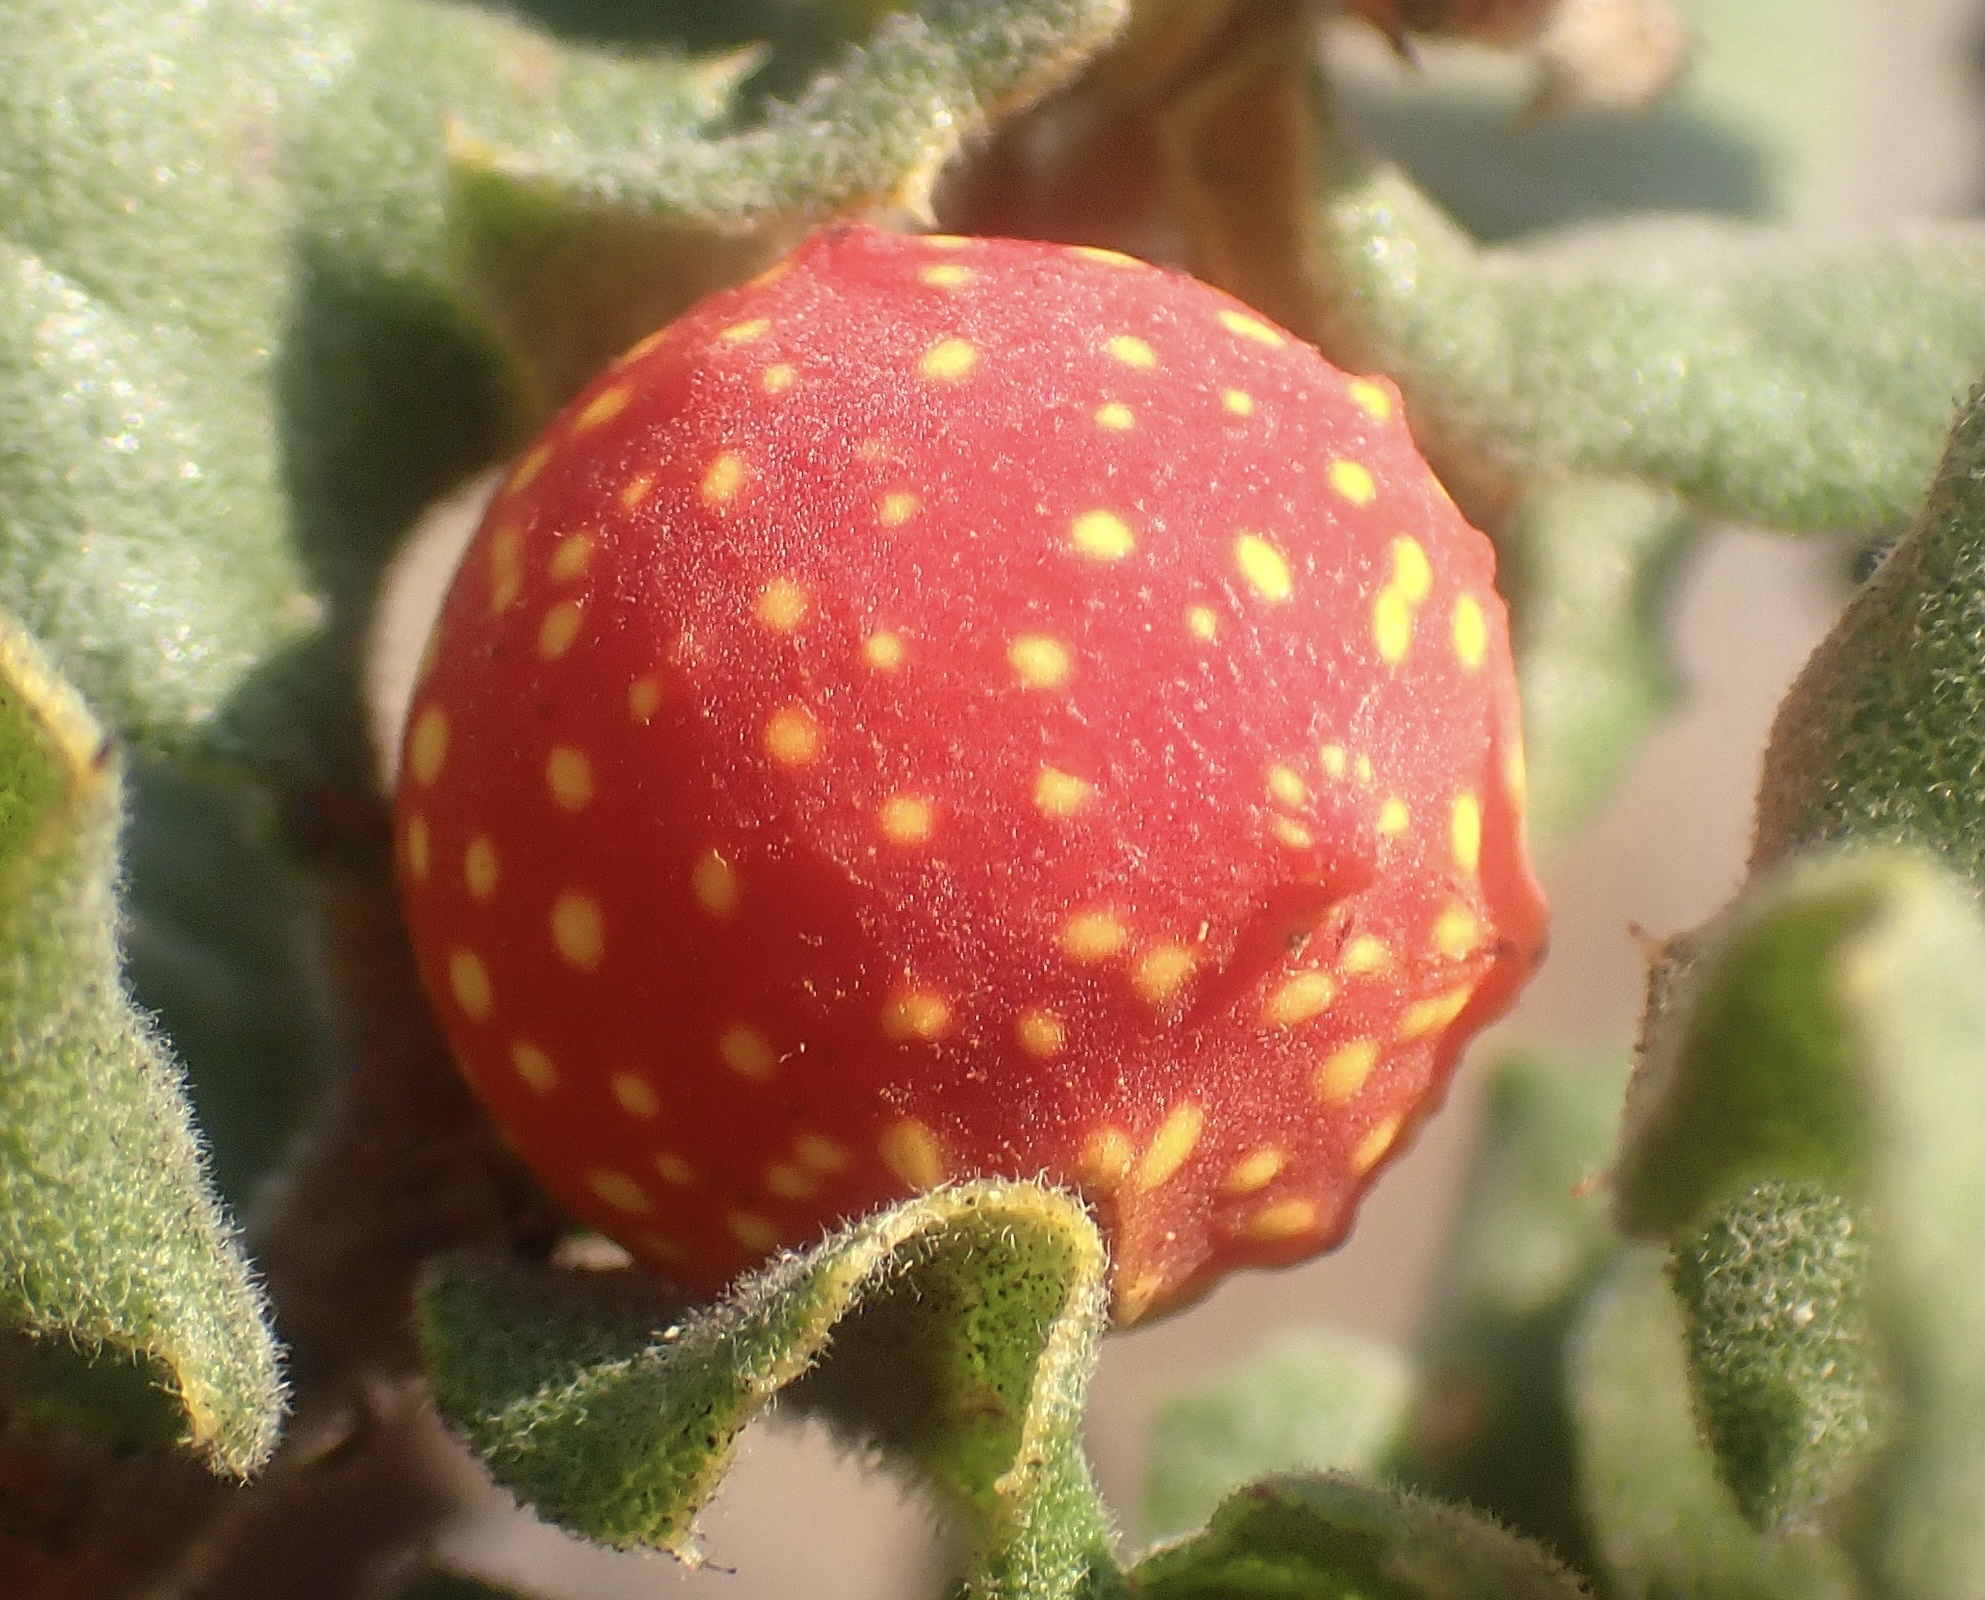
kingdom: Animalia
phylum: Arthropoda
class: Insecta
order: Hymenoptera
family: Cynipidae
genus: Burnettweldia
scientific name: Burnettweldia
